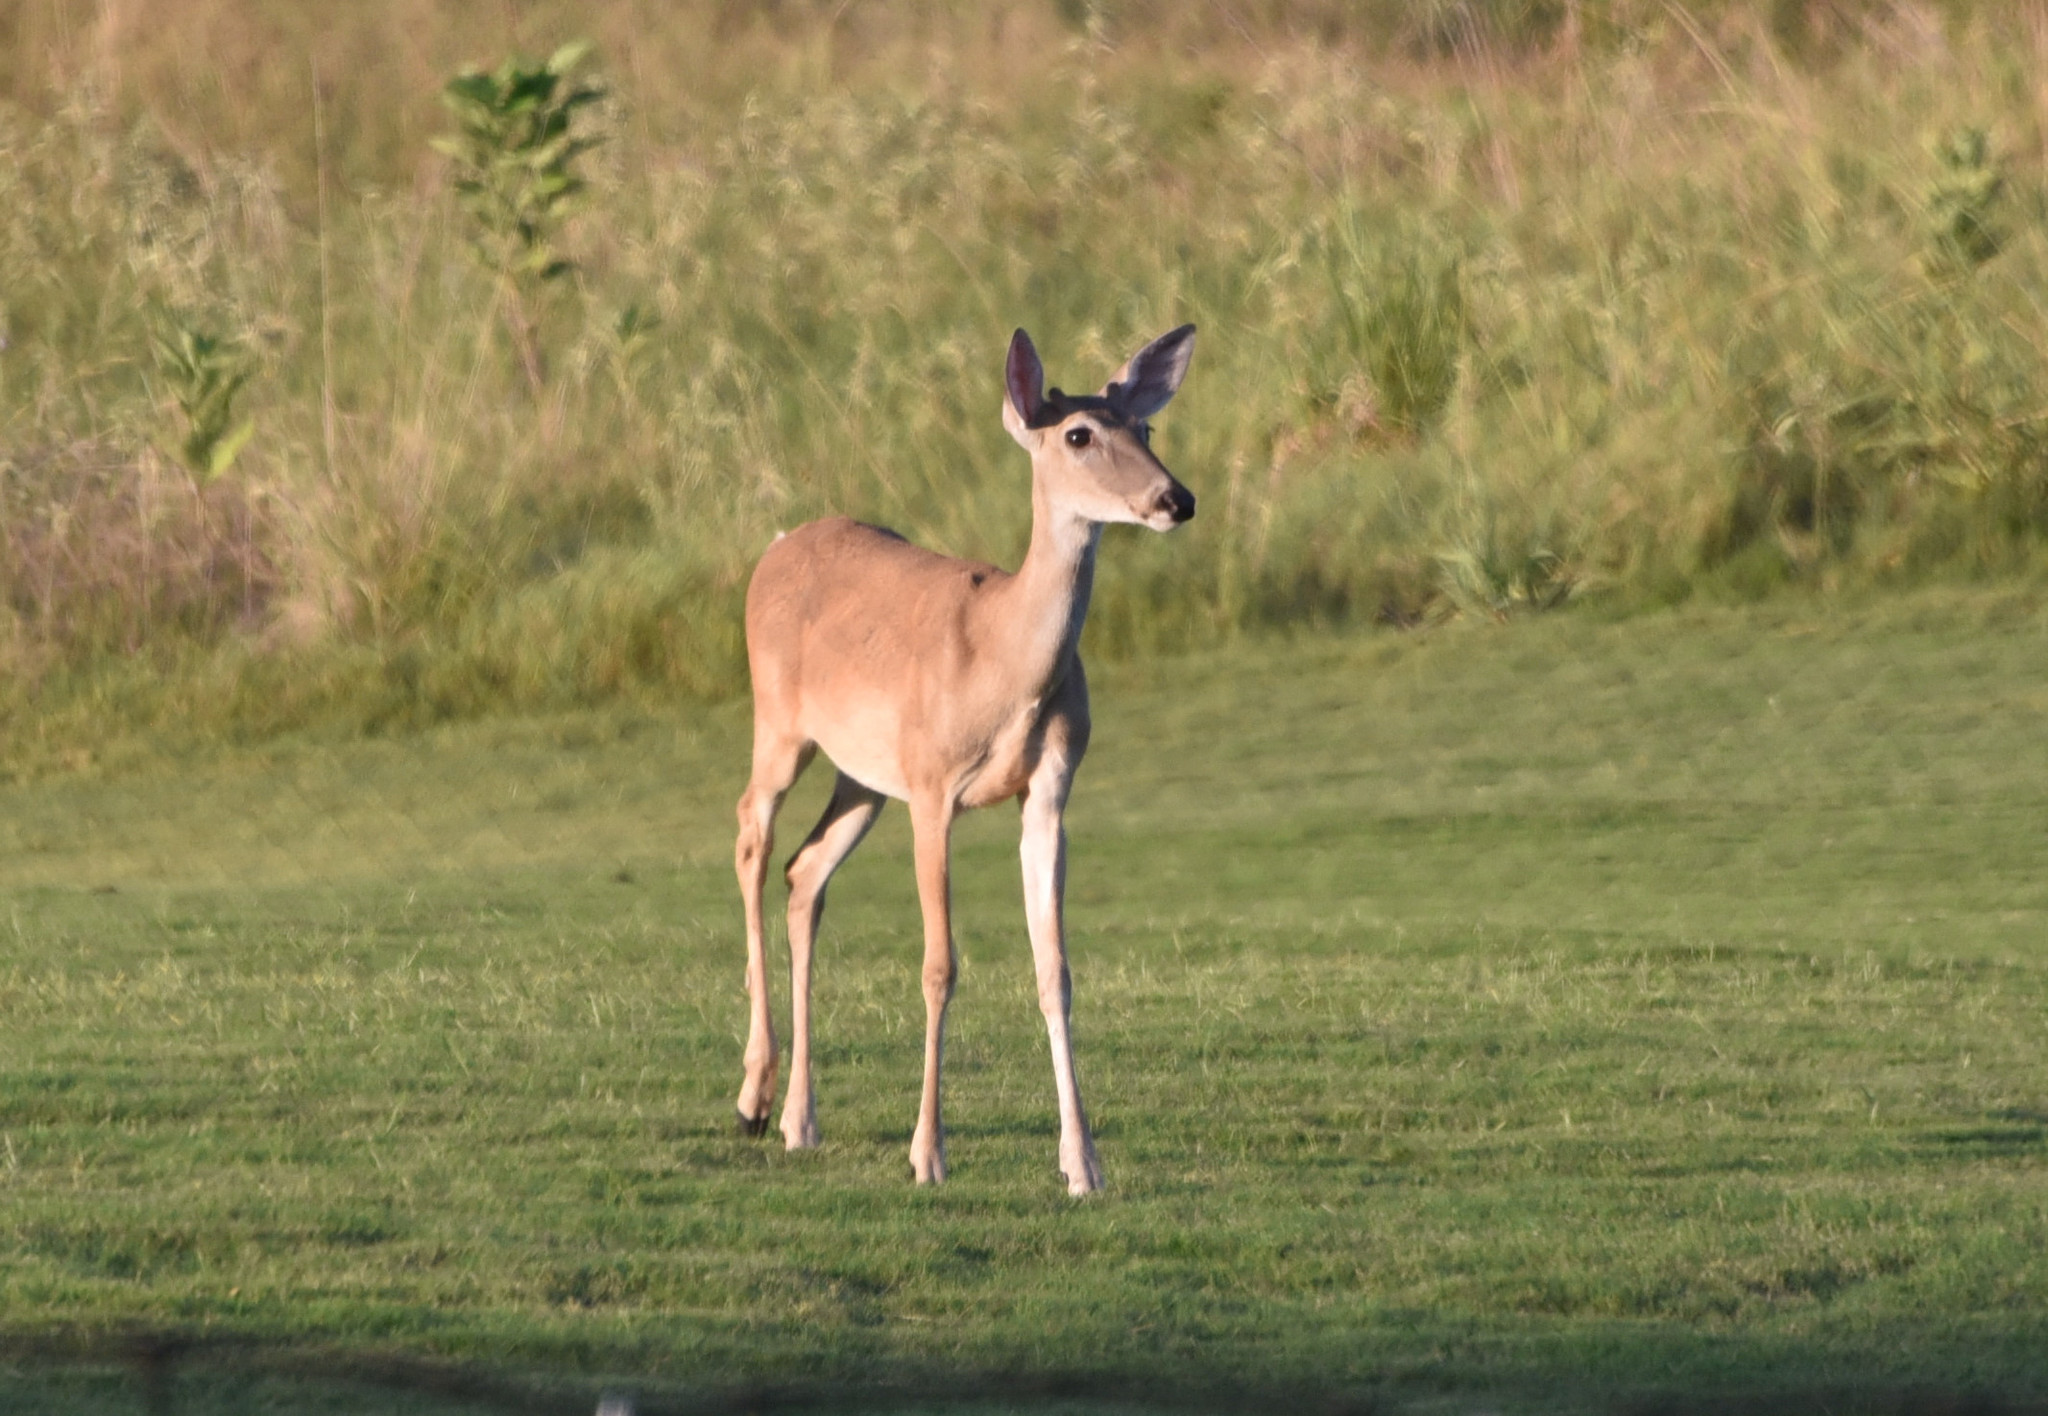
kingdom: Animalia
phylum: Chordata
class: Mammalia
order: Artiodactyla
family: Cervidae
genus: Odocoileus
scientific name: Odocoileus virginianus
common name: White-tailed deer
